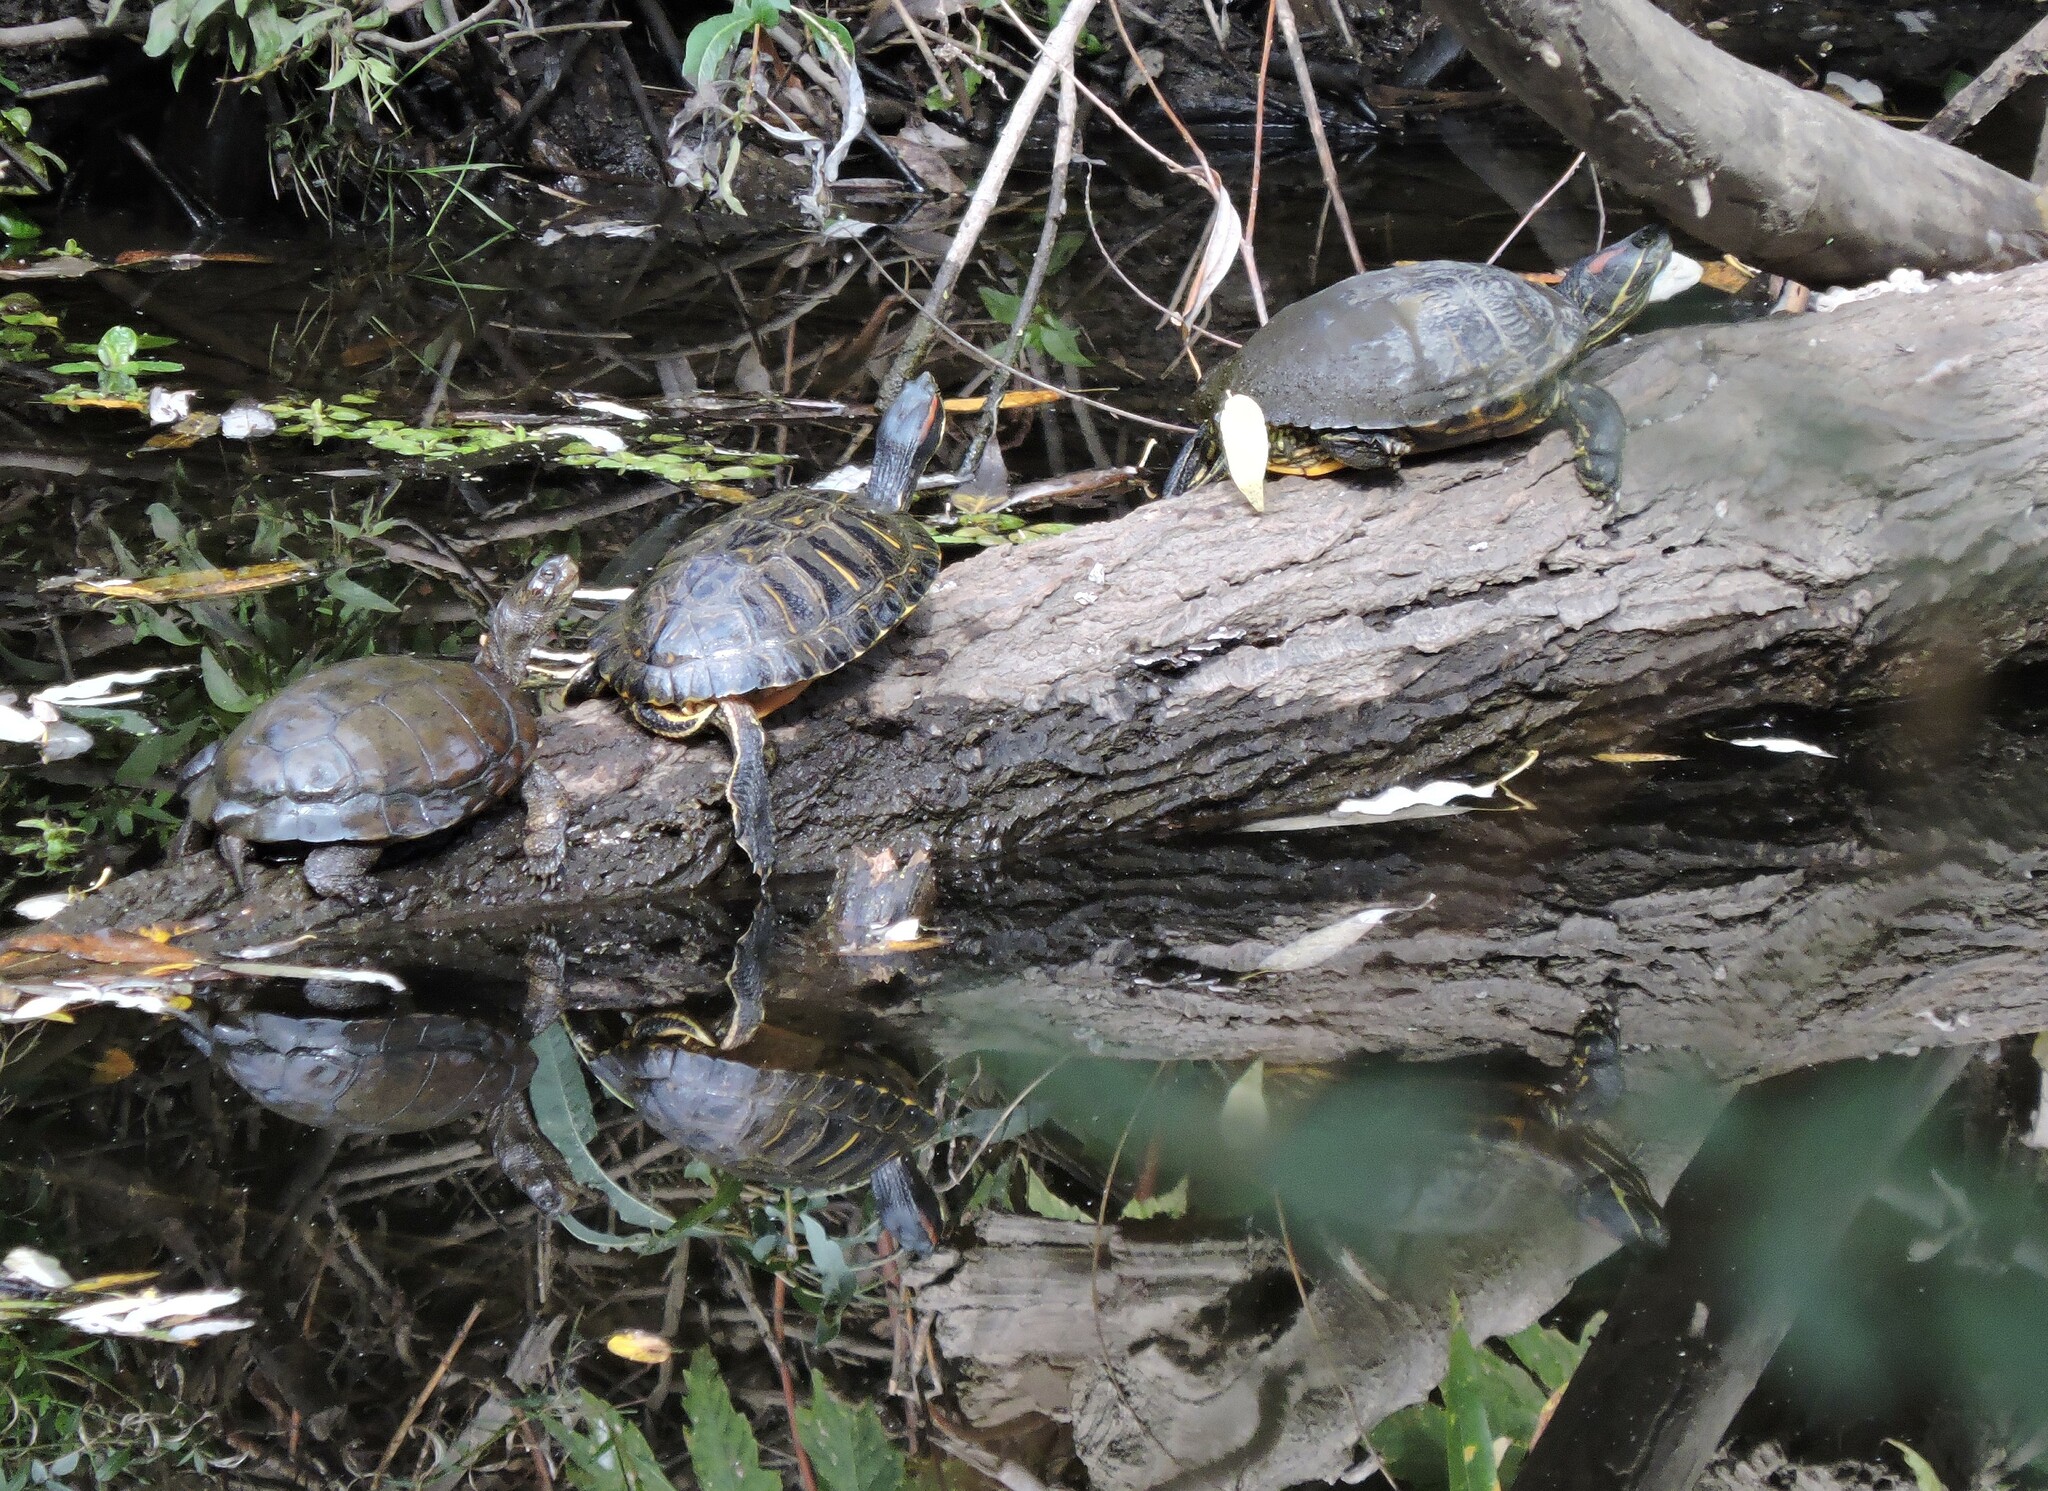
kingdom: Animalia
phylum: Chordata
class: Testudines
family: Emydidae
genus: Trachemys
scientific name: Trachemys scripta
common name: Slider
